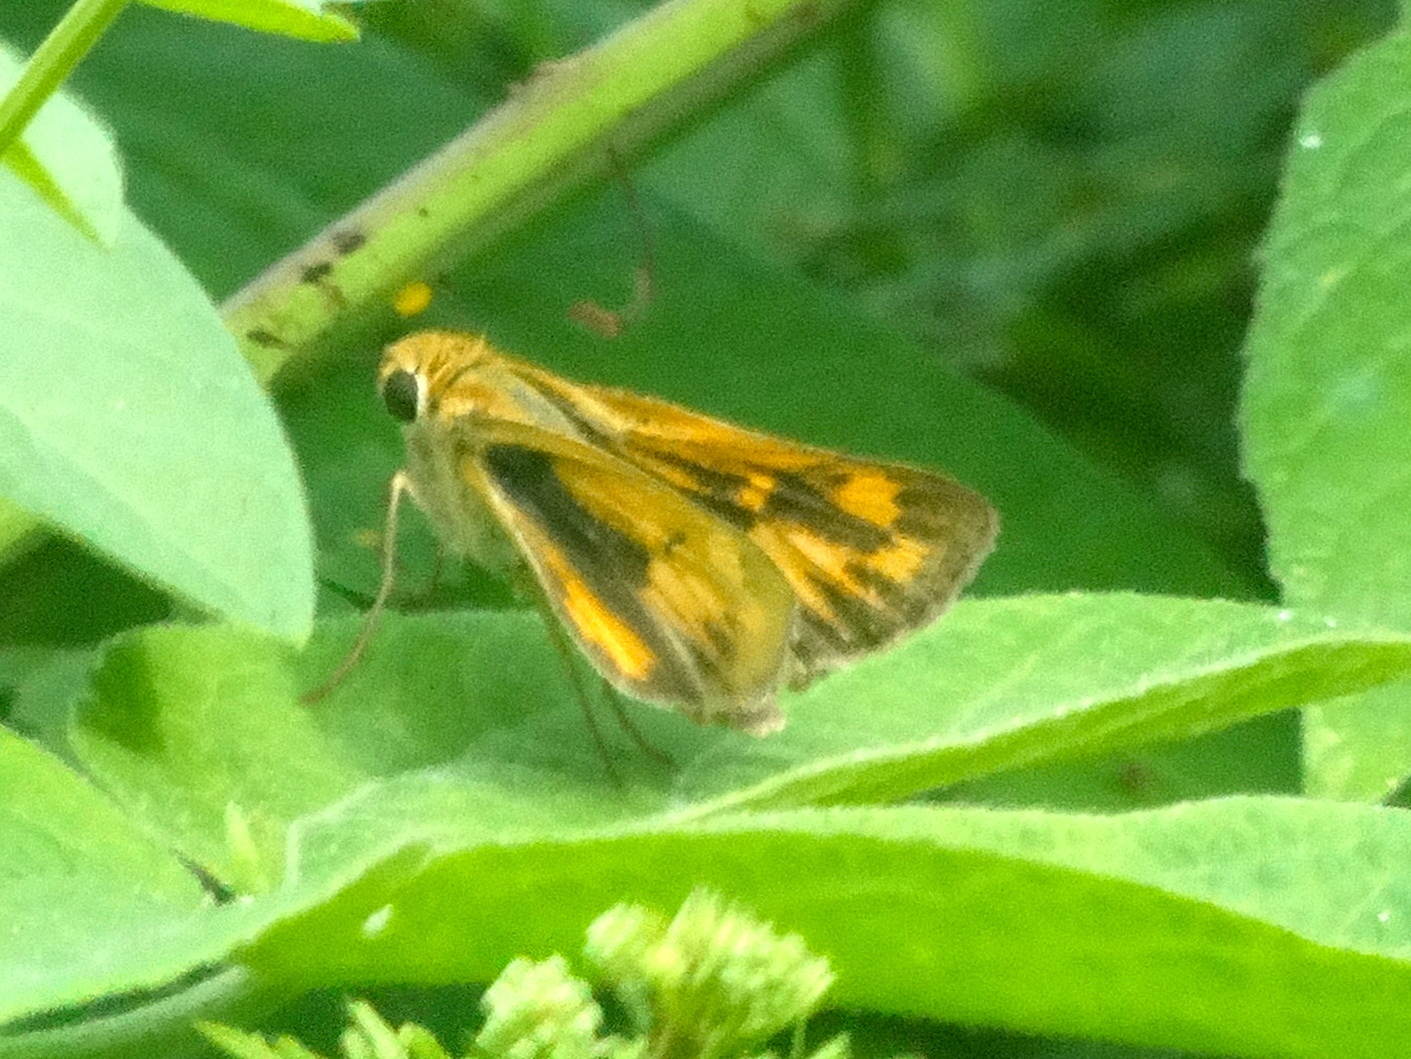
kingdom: Animalia
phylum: Arthropoda
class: Insecta
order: Lepidoptera
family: Hesperiidae
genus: Hylephila
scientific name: Hylephila phyleus
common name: Fiery skipper
